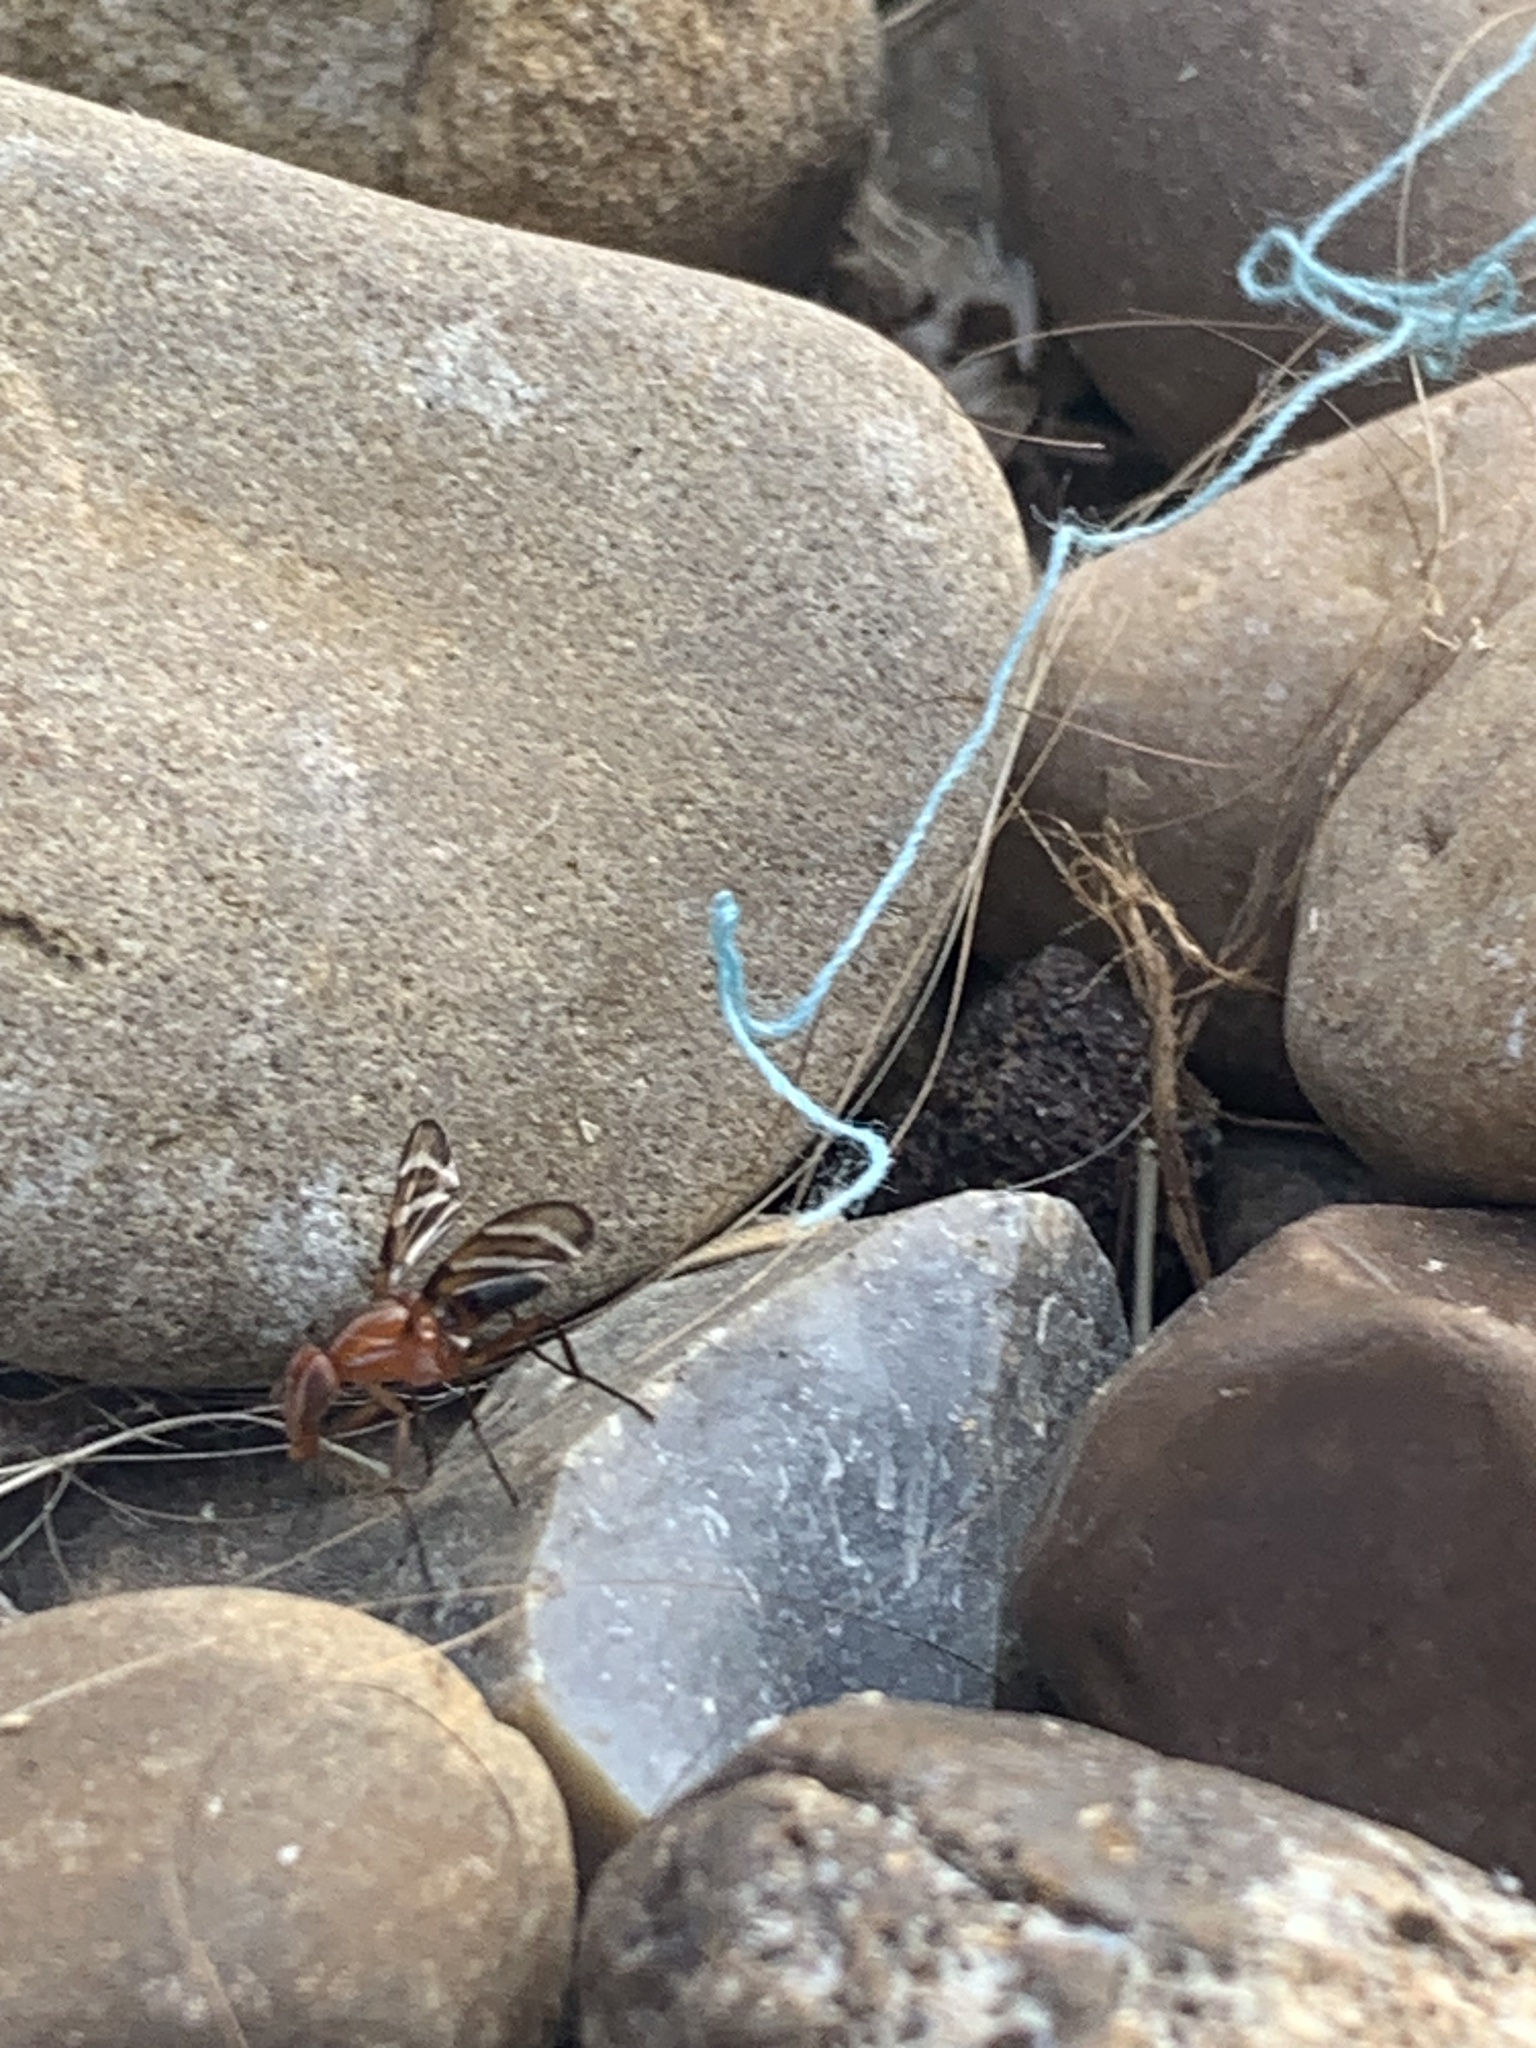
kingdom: Animalia
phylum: Arthropoda
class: Insecta
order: Diptera
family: Ulidiidae
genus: Tritoxa
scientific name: Tritoxa incurva
